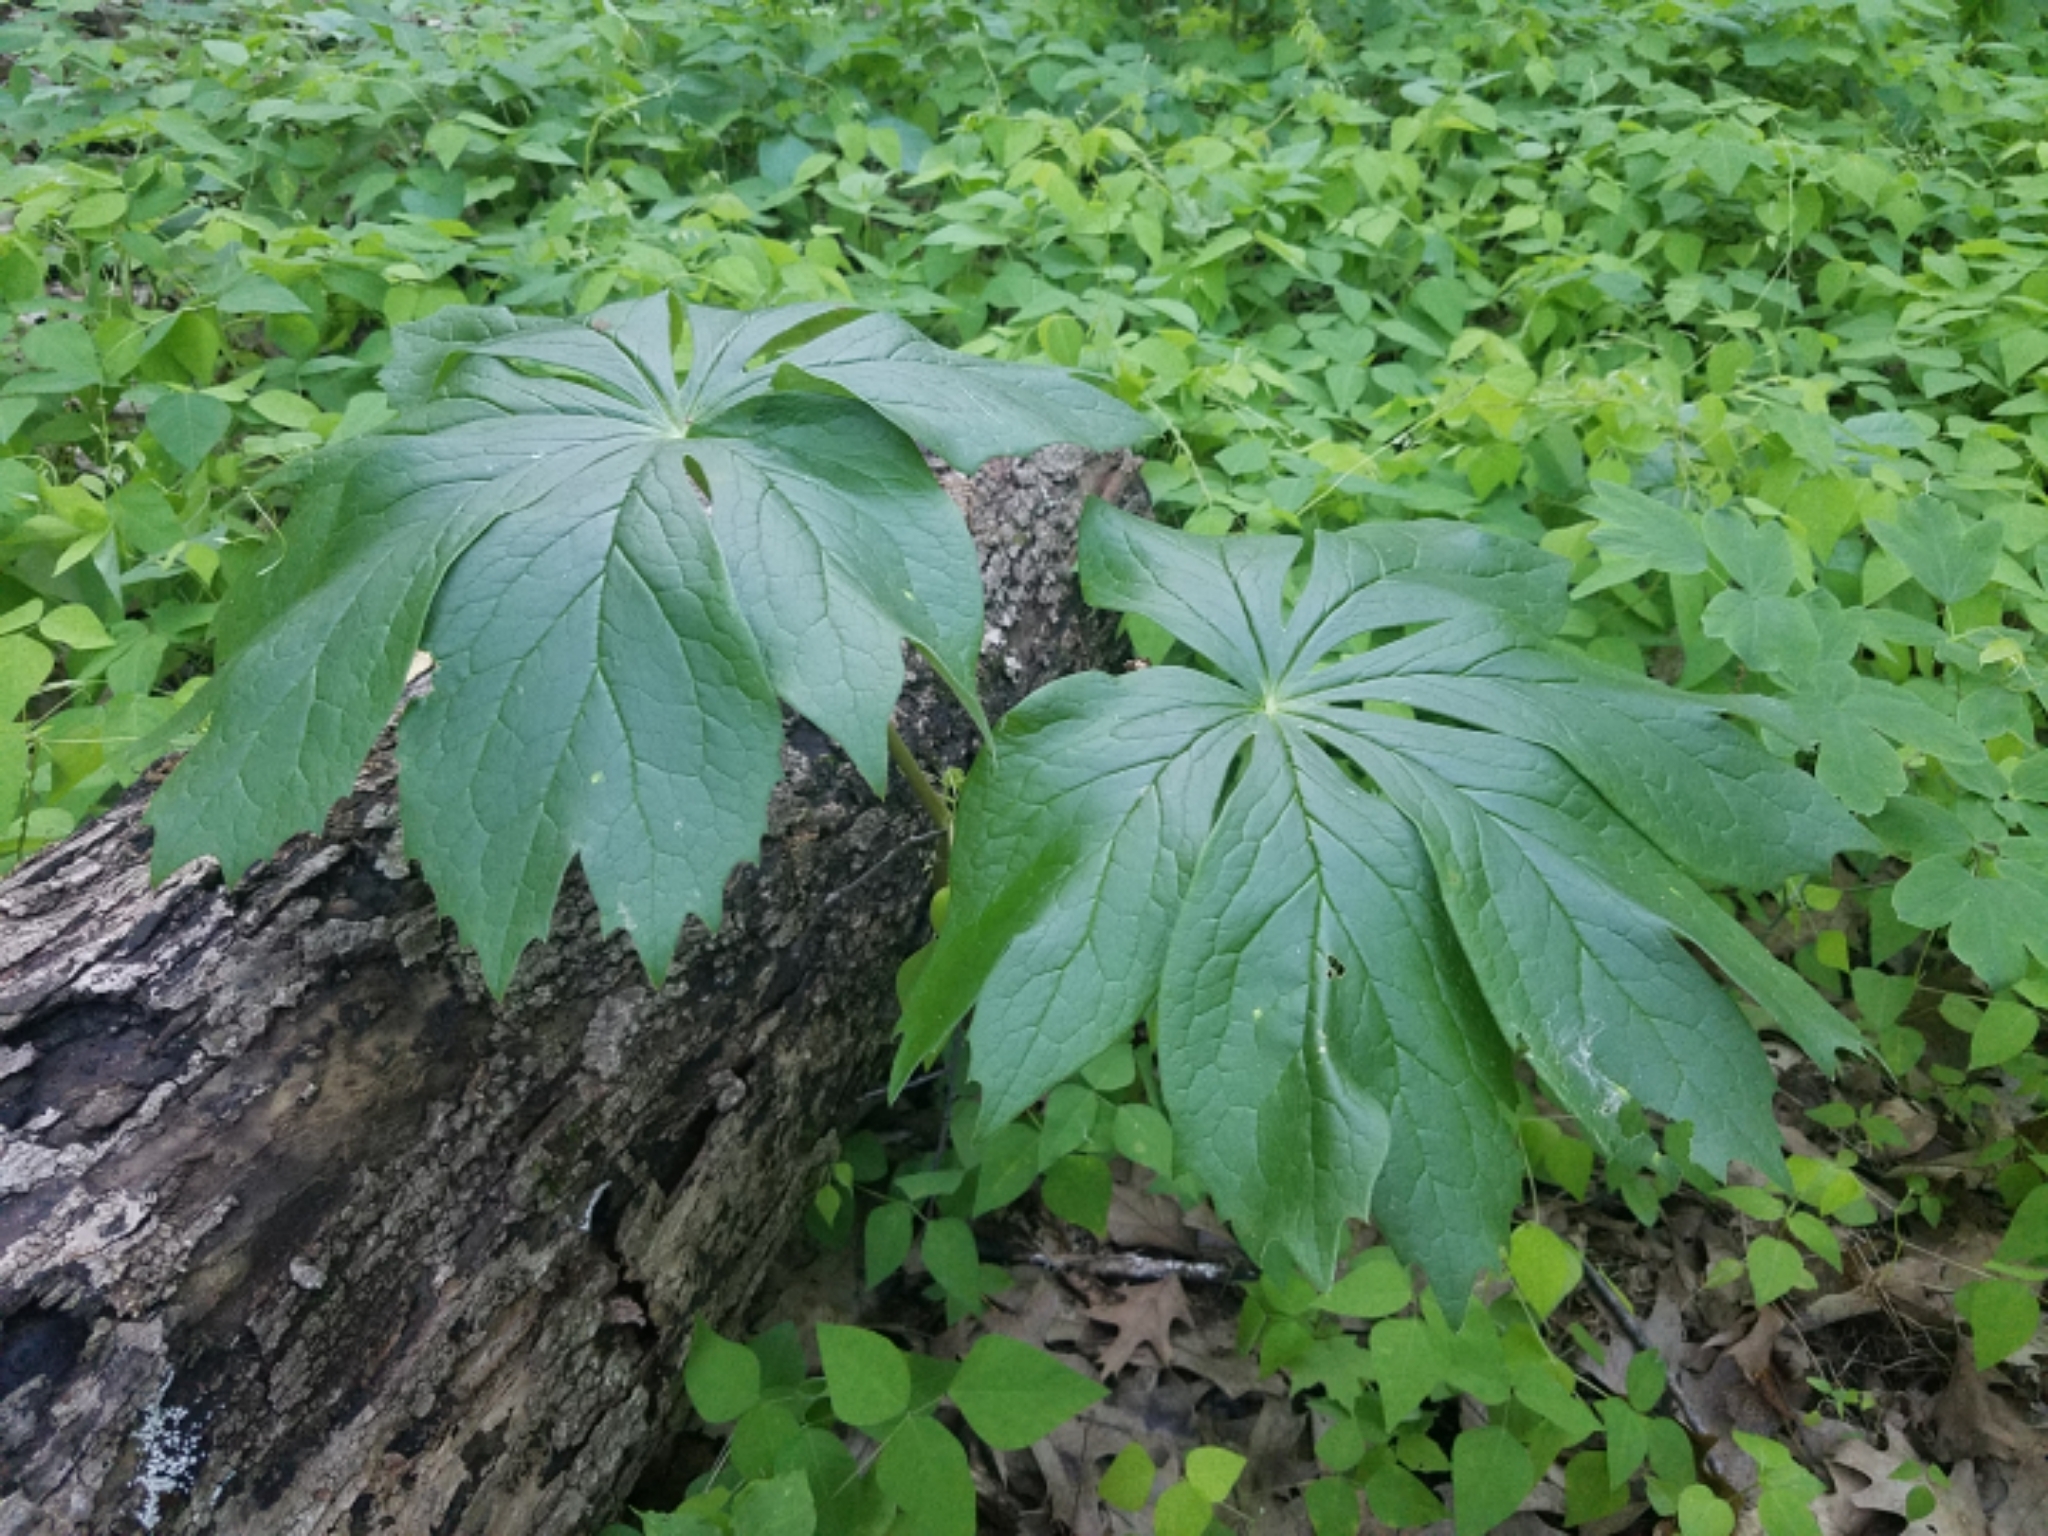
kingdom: Plantae
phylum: Tracheophyta
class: Magnoliopsida
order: Ranunculales
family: Berberidaceae
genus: Podophyllum
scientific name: Podophyllum peltatum
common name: Wild mandrake
